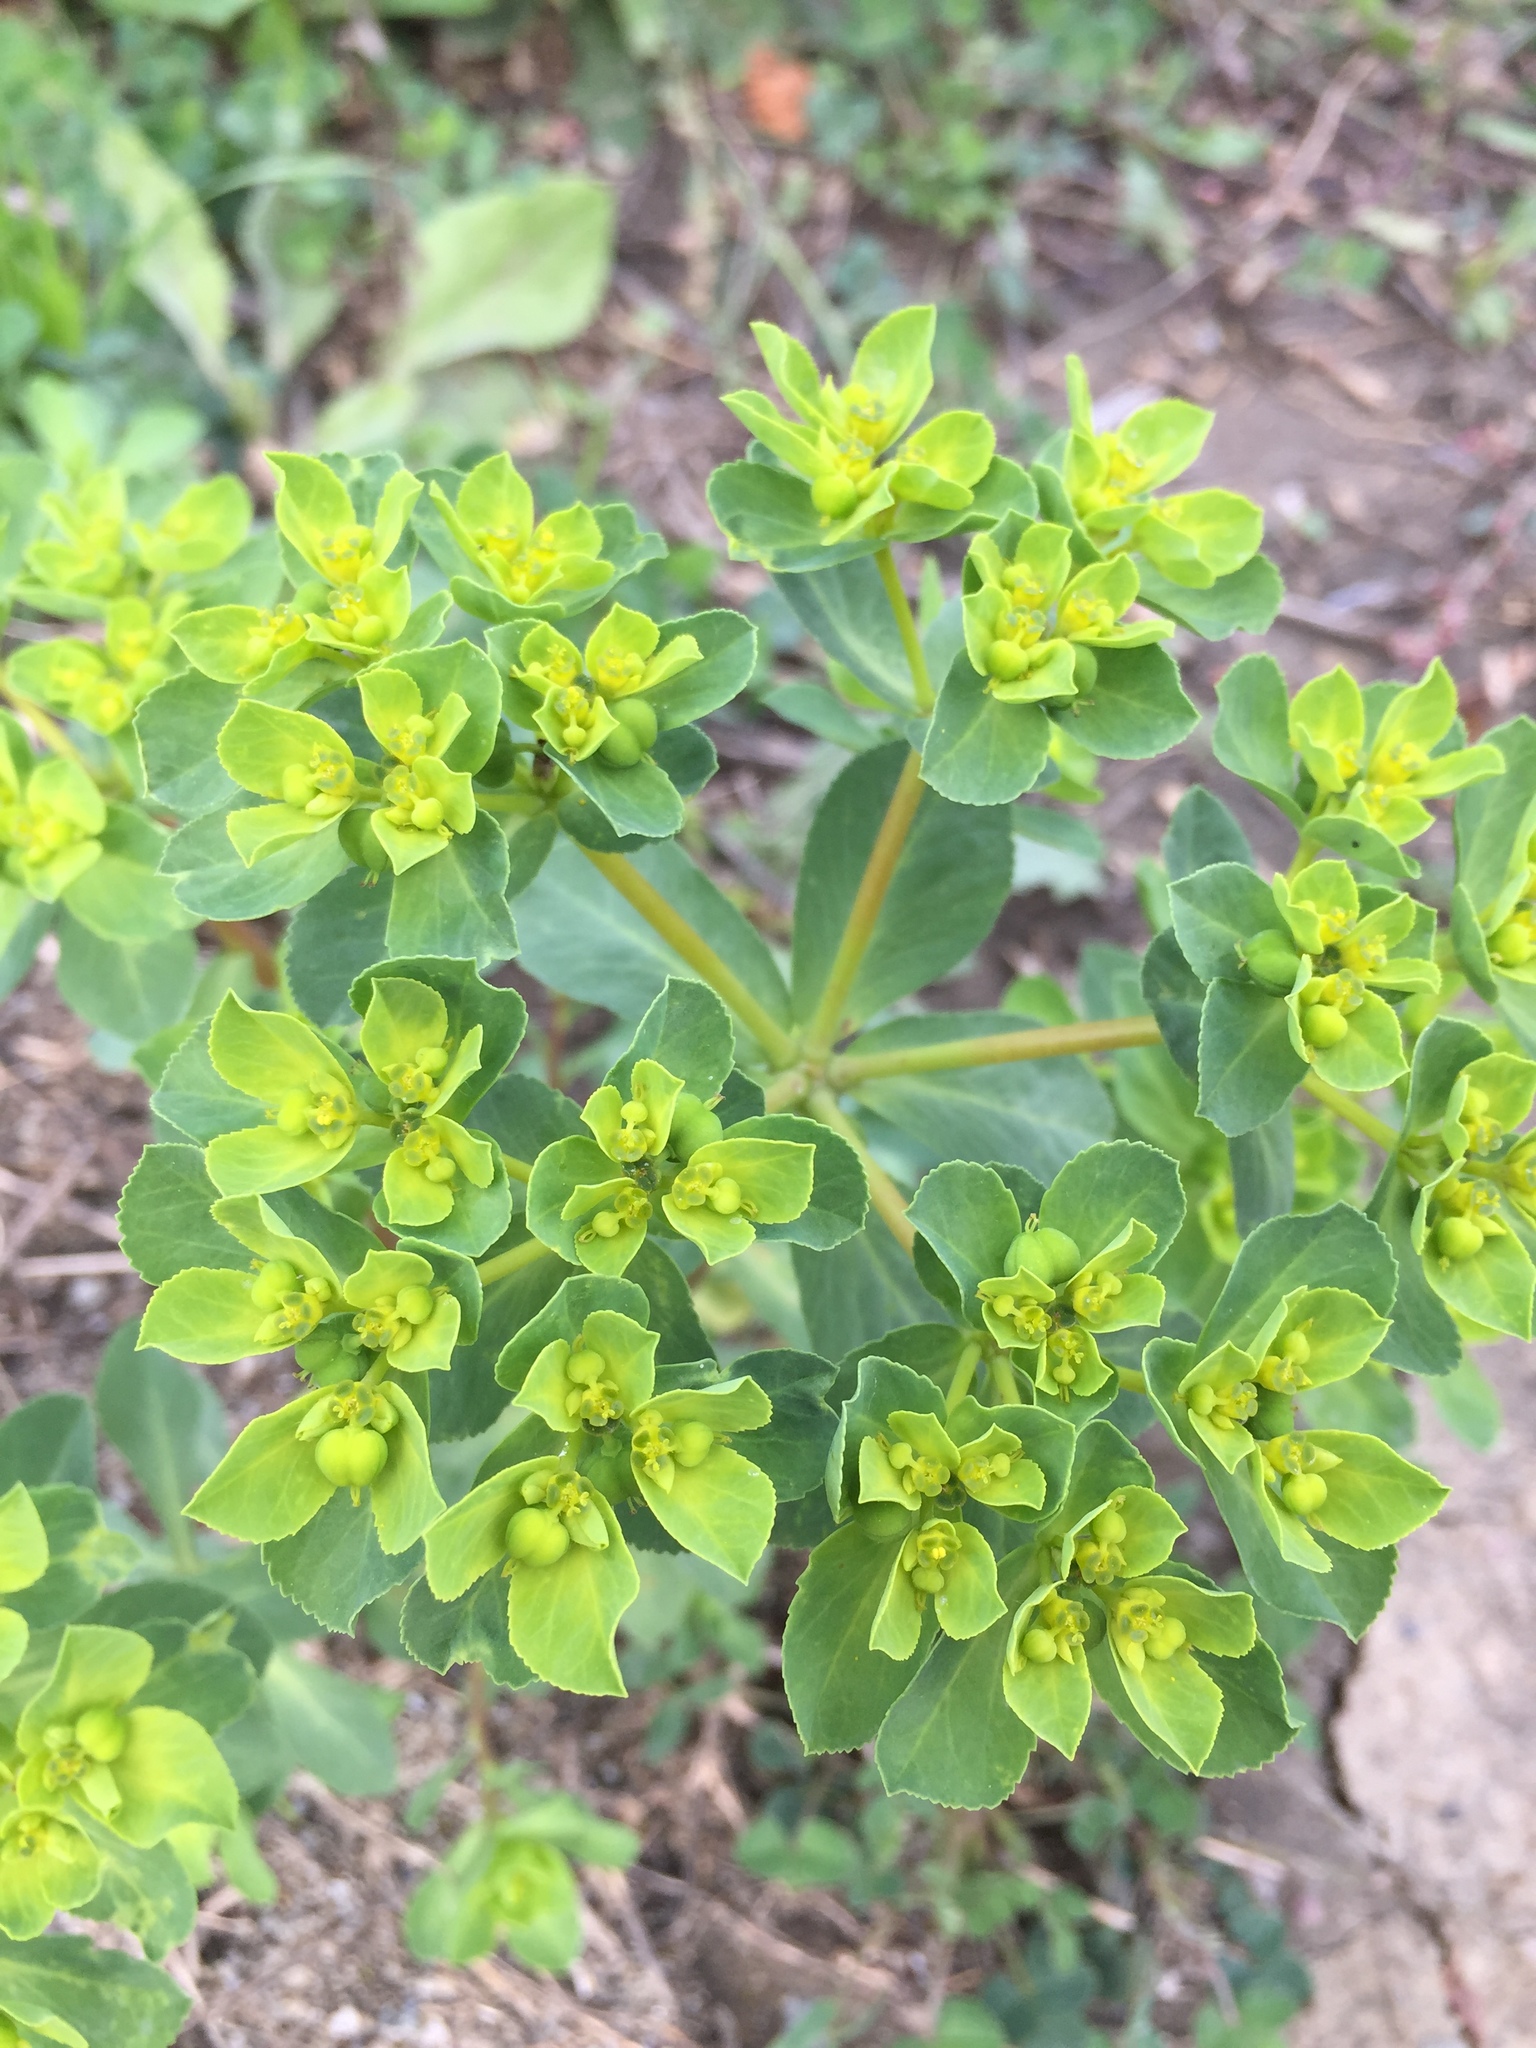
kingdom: Plantae
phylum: Tracheophyta
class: Magnoliopsida
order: Malpighiales
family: Euphorbiaceae
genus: Euphorbia
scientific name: Euphorbia helioscopia
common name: Sun spurge
